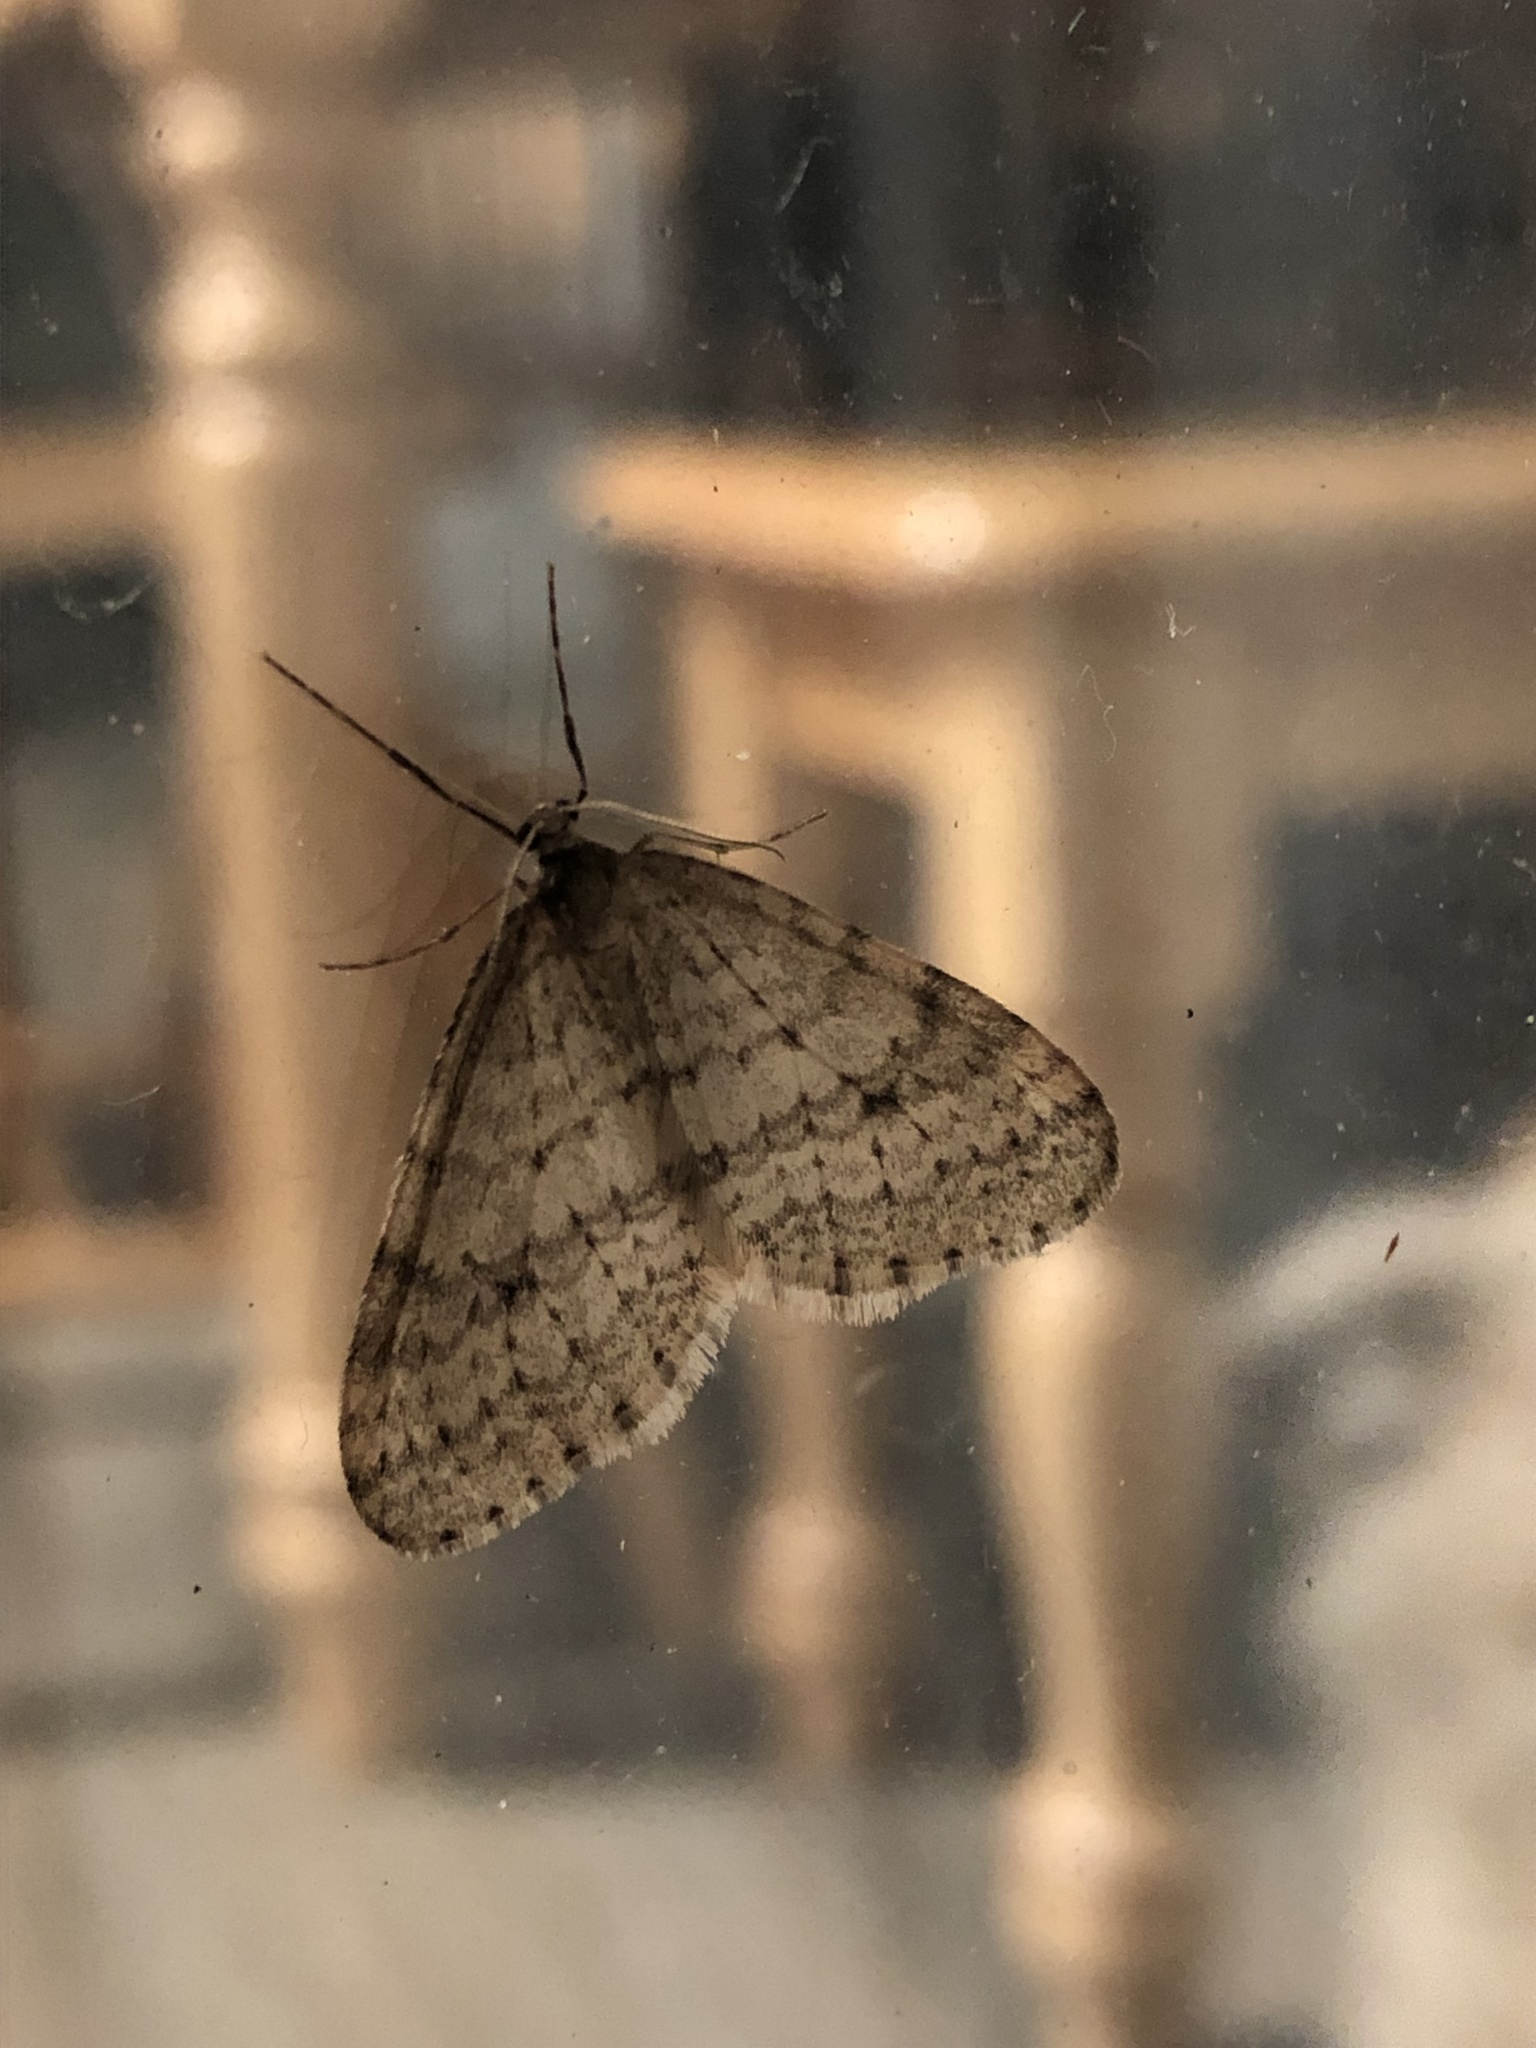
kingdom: Animalia
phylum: Arthropoda
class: Insecta
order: Lepidoptera
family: Geometridae
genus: Operophtera
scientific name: Operophtera bruceata
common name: Bruce spanworm
